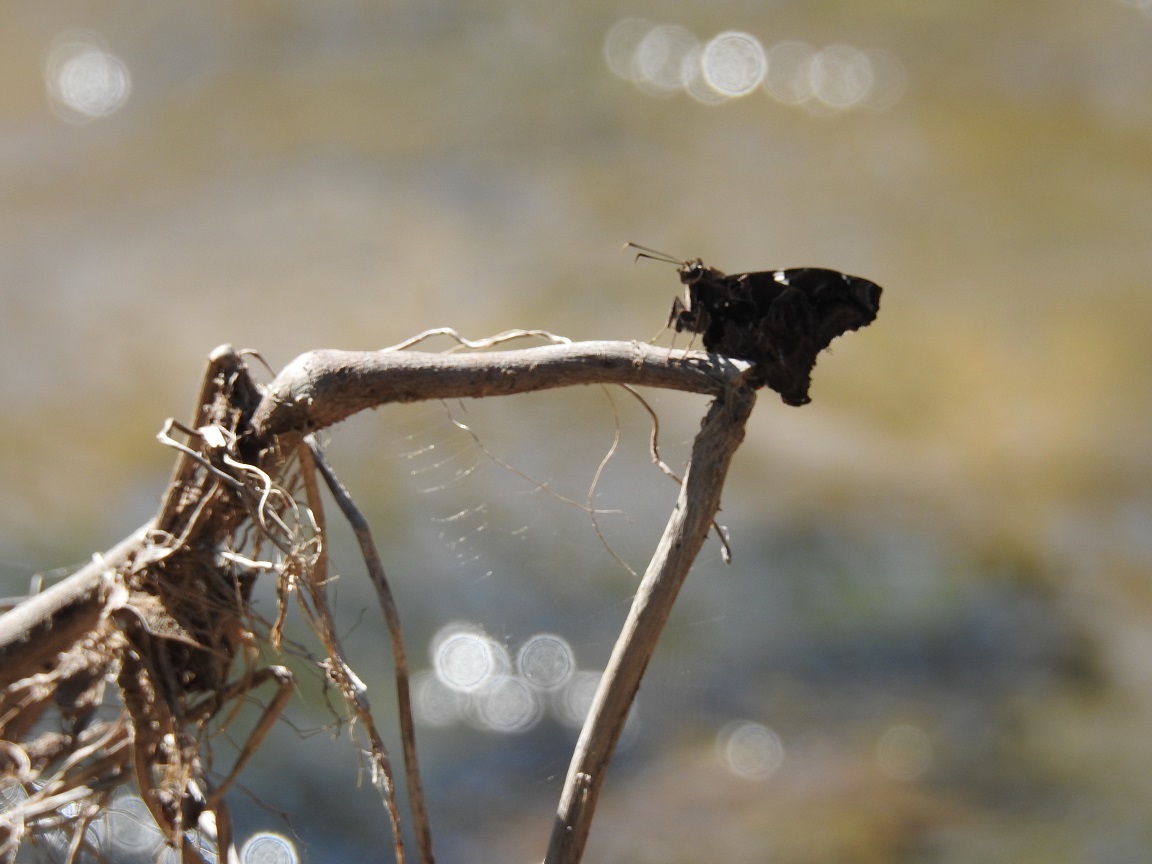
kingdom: Animalia
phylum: Arthropoda
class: Insecta
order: Lepidoptera
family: Hesperiidae
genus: Spathilepia
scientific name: Spathilepia clonius
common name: Falcate skipper
